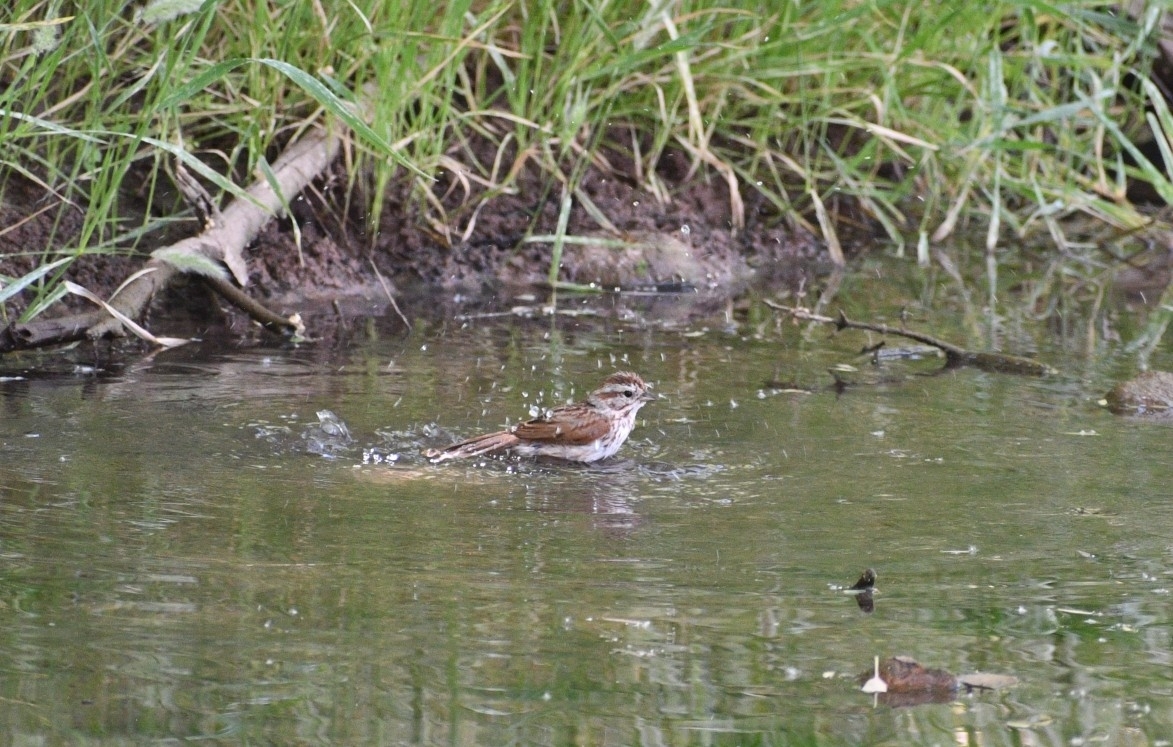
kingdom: Animalia
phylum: Chordata
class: Aves
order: Passeriformes
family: Passerellidae
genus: Melospiza
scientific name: Melospiza melodia
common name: Song sparrow
